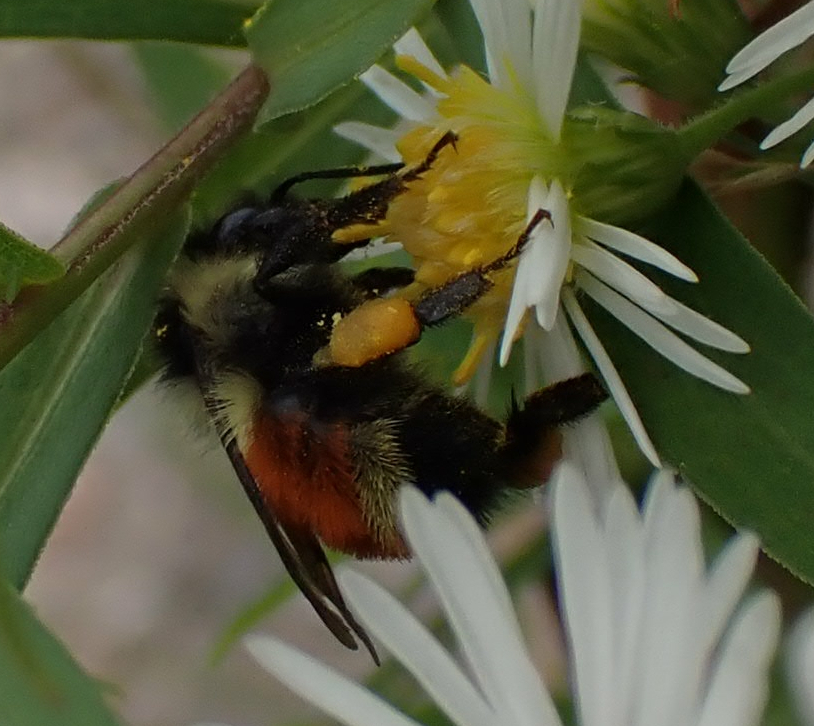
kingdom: Animalia
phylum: Arthropoda
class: Insecta
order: Hymenoptera
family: Apidae
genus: Bombus
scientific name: Bombus ternarius
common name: Tri-colored bumble bee
